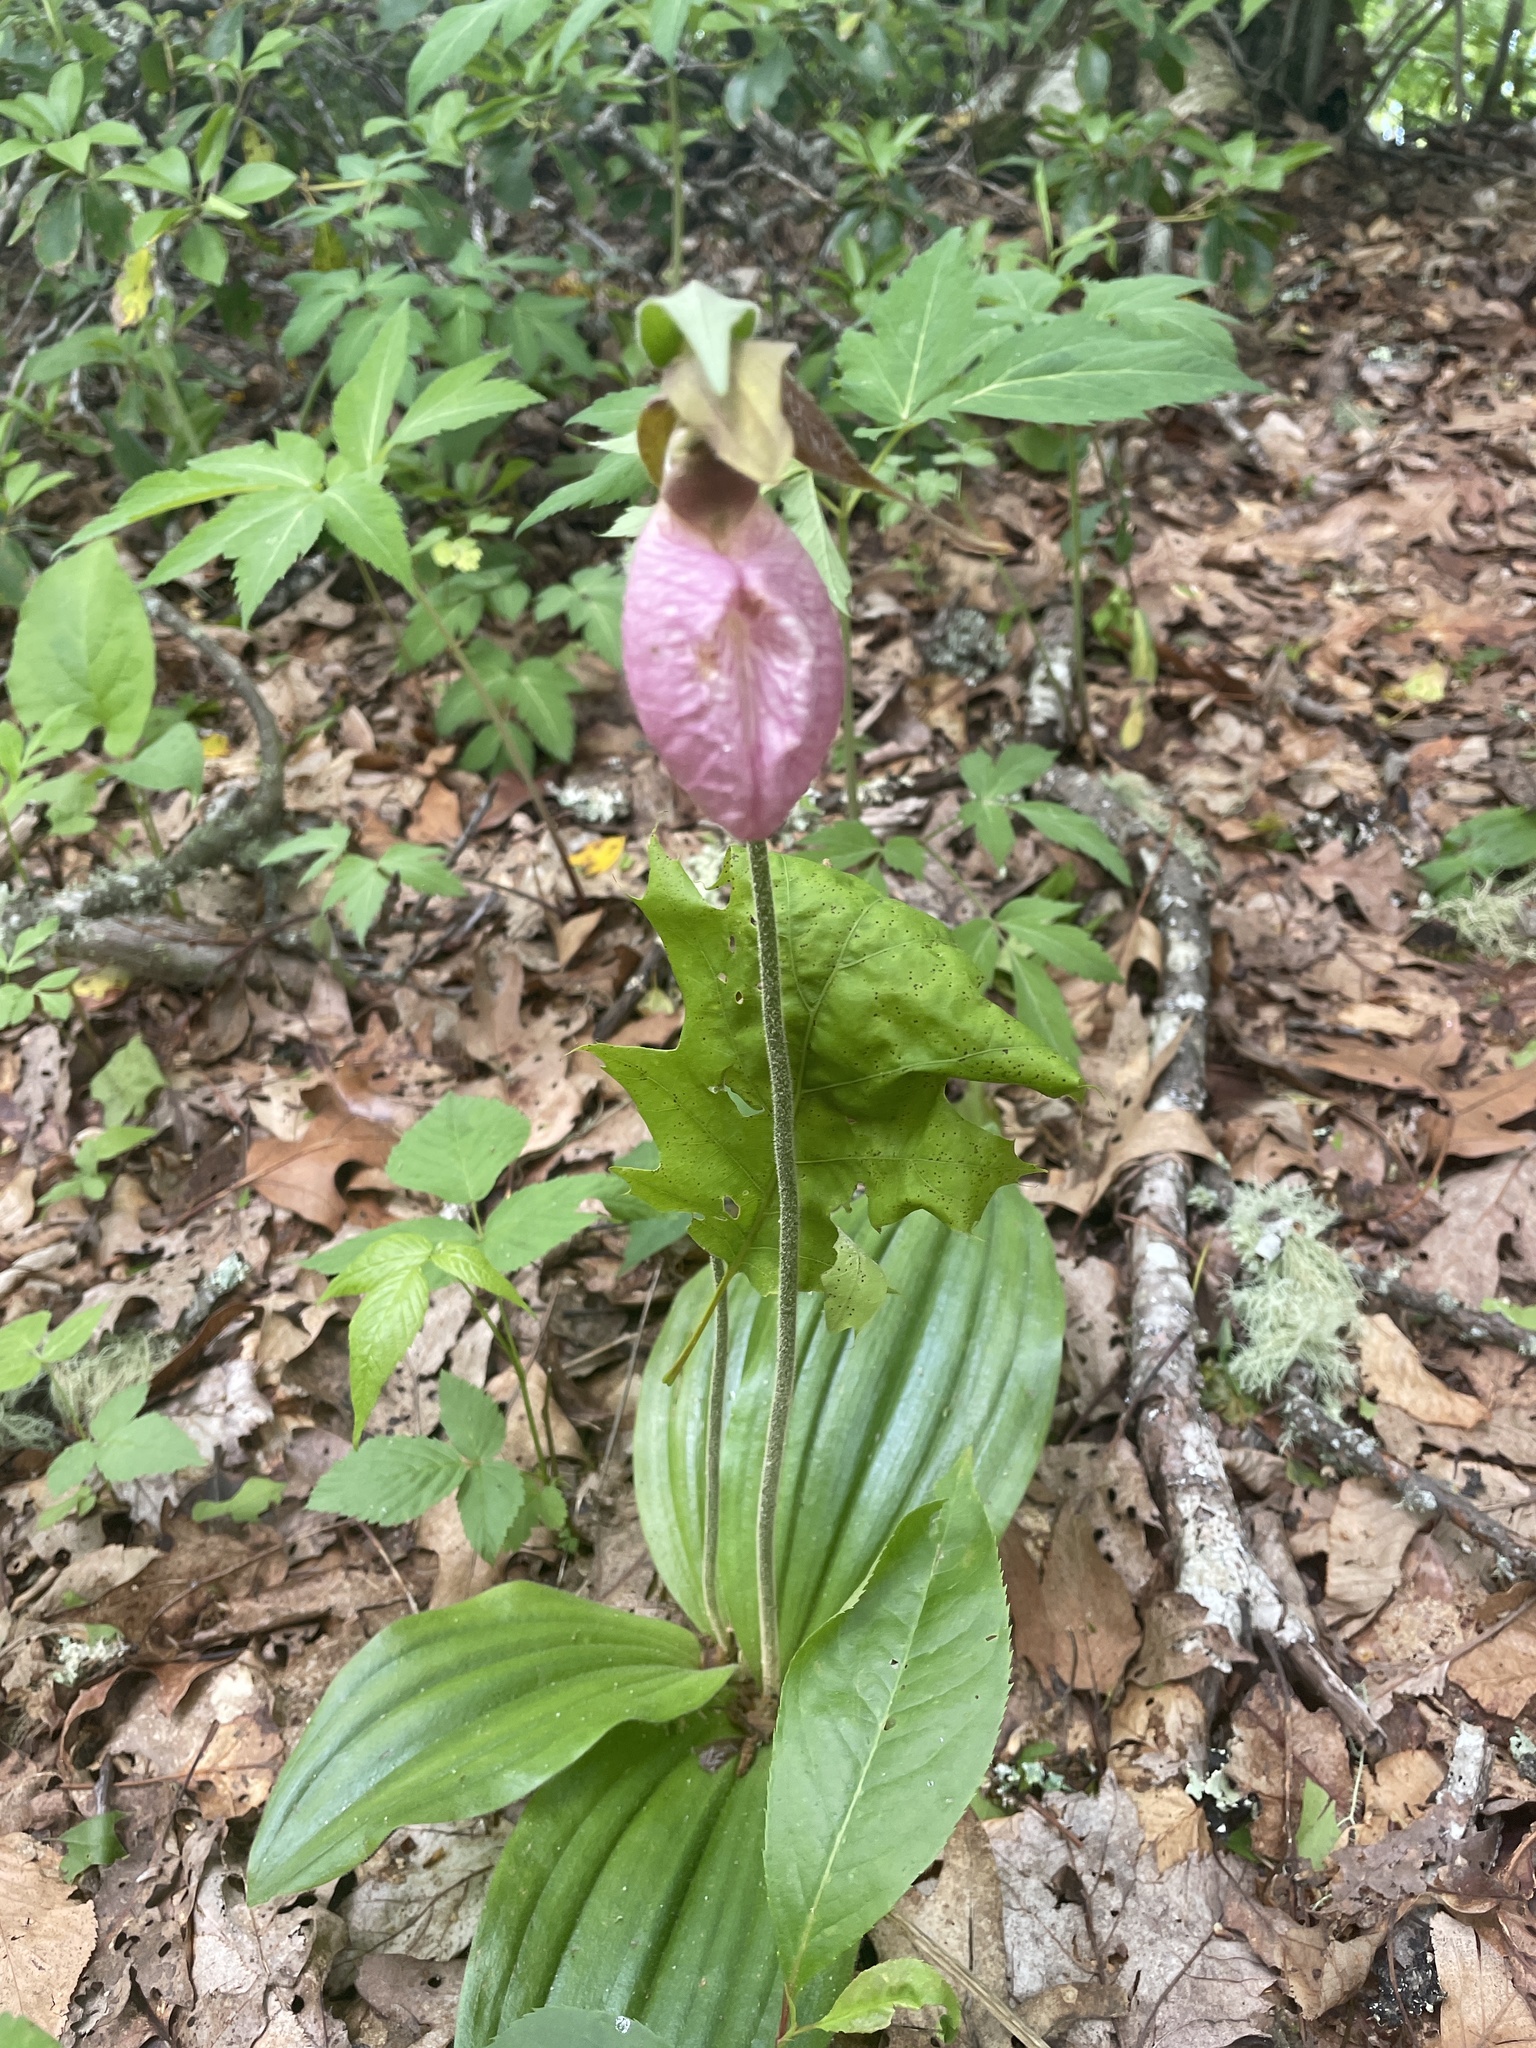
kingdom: Plantae
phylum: Tracheophyta
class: Liliopsida
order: Asparagales
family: Orchidaceae
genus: Cypripedium
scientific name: Cypripedium acaule
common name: Pink lady's-slipper
